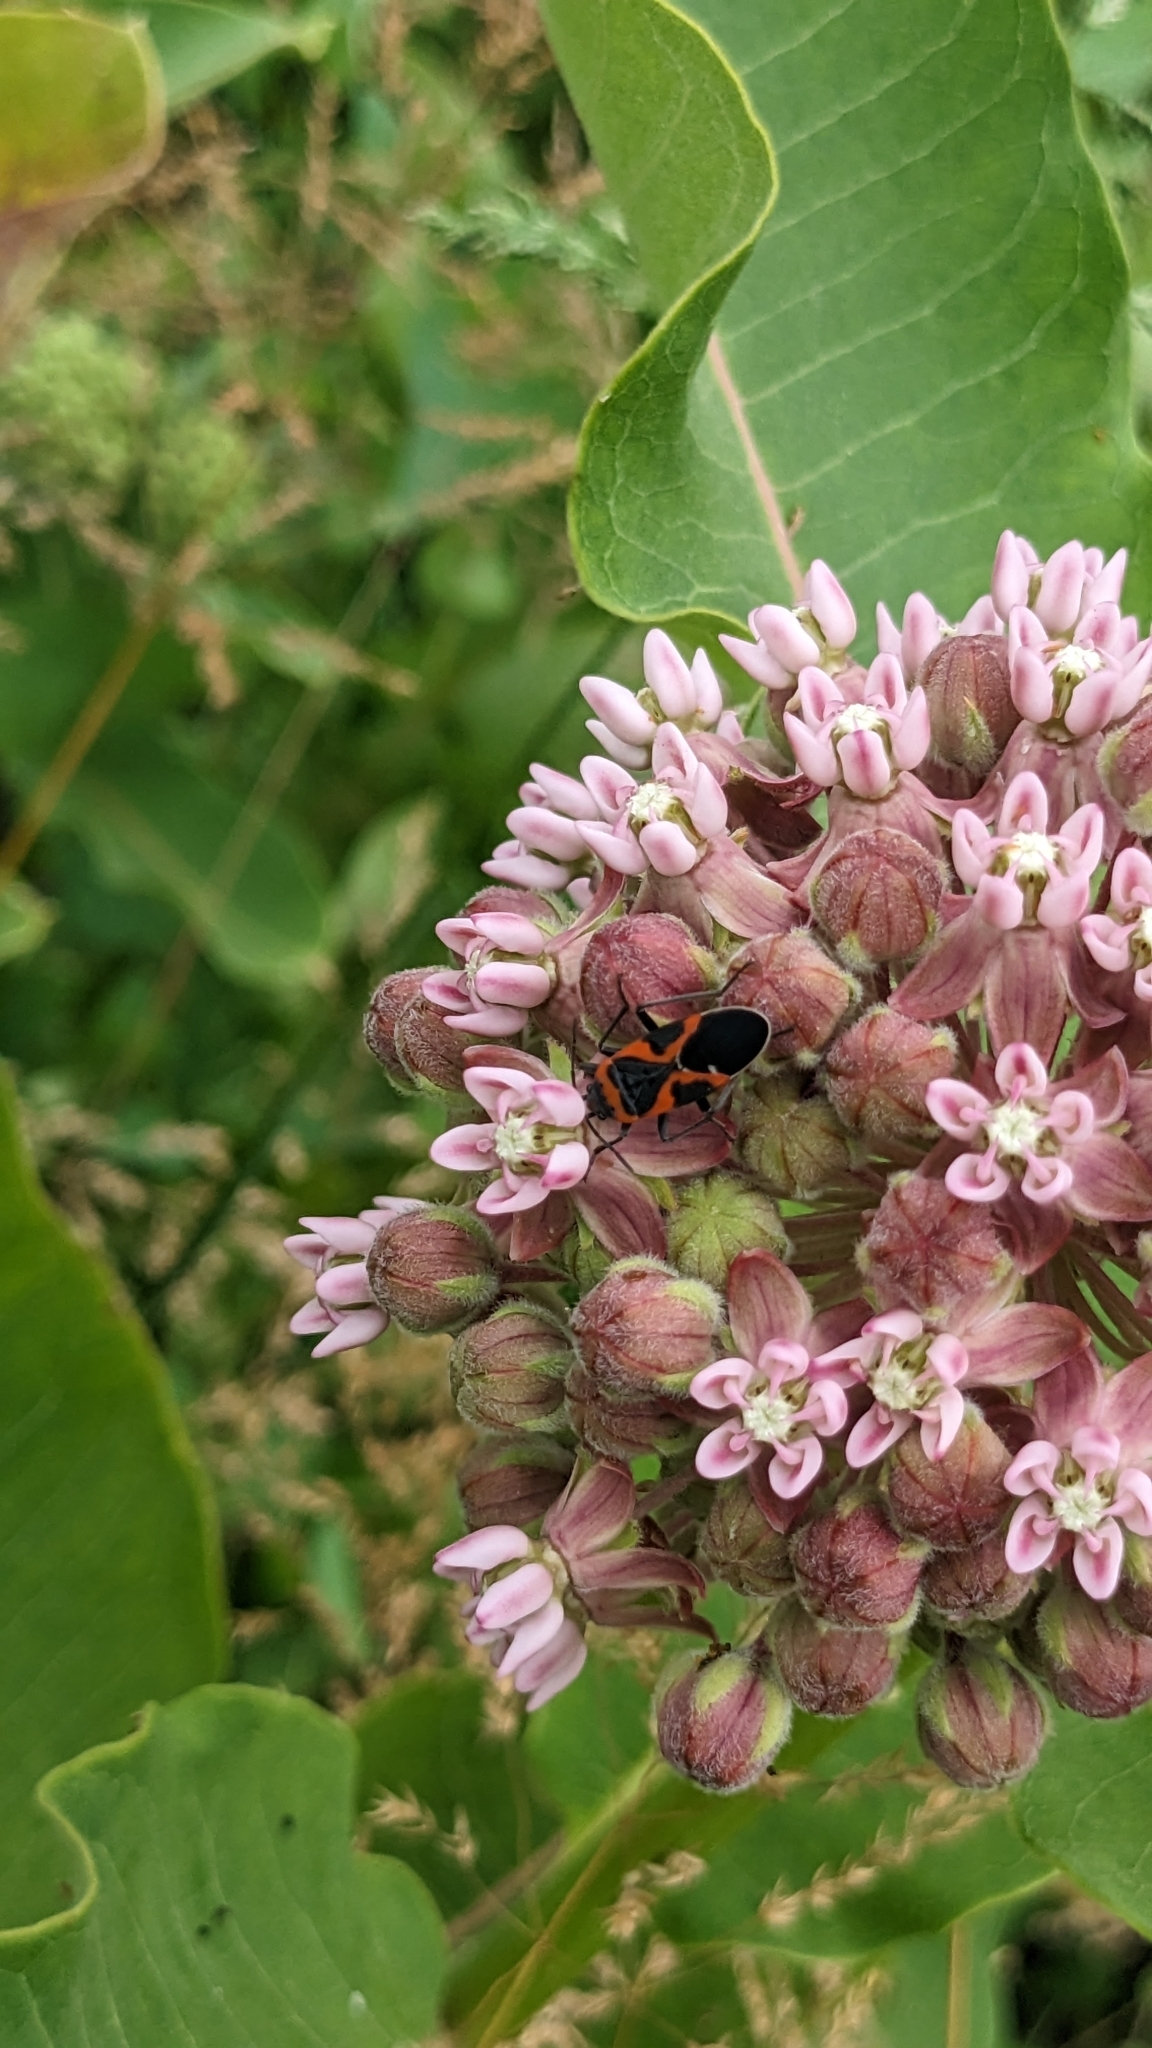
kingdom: Animalia
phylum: Arthropoda
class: Insecta
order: Hemiptera
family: Lygaeidae
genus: Lygaeus
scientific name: Lygaeus kalmii
